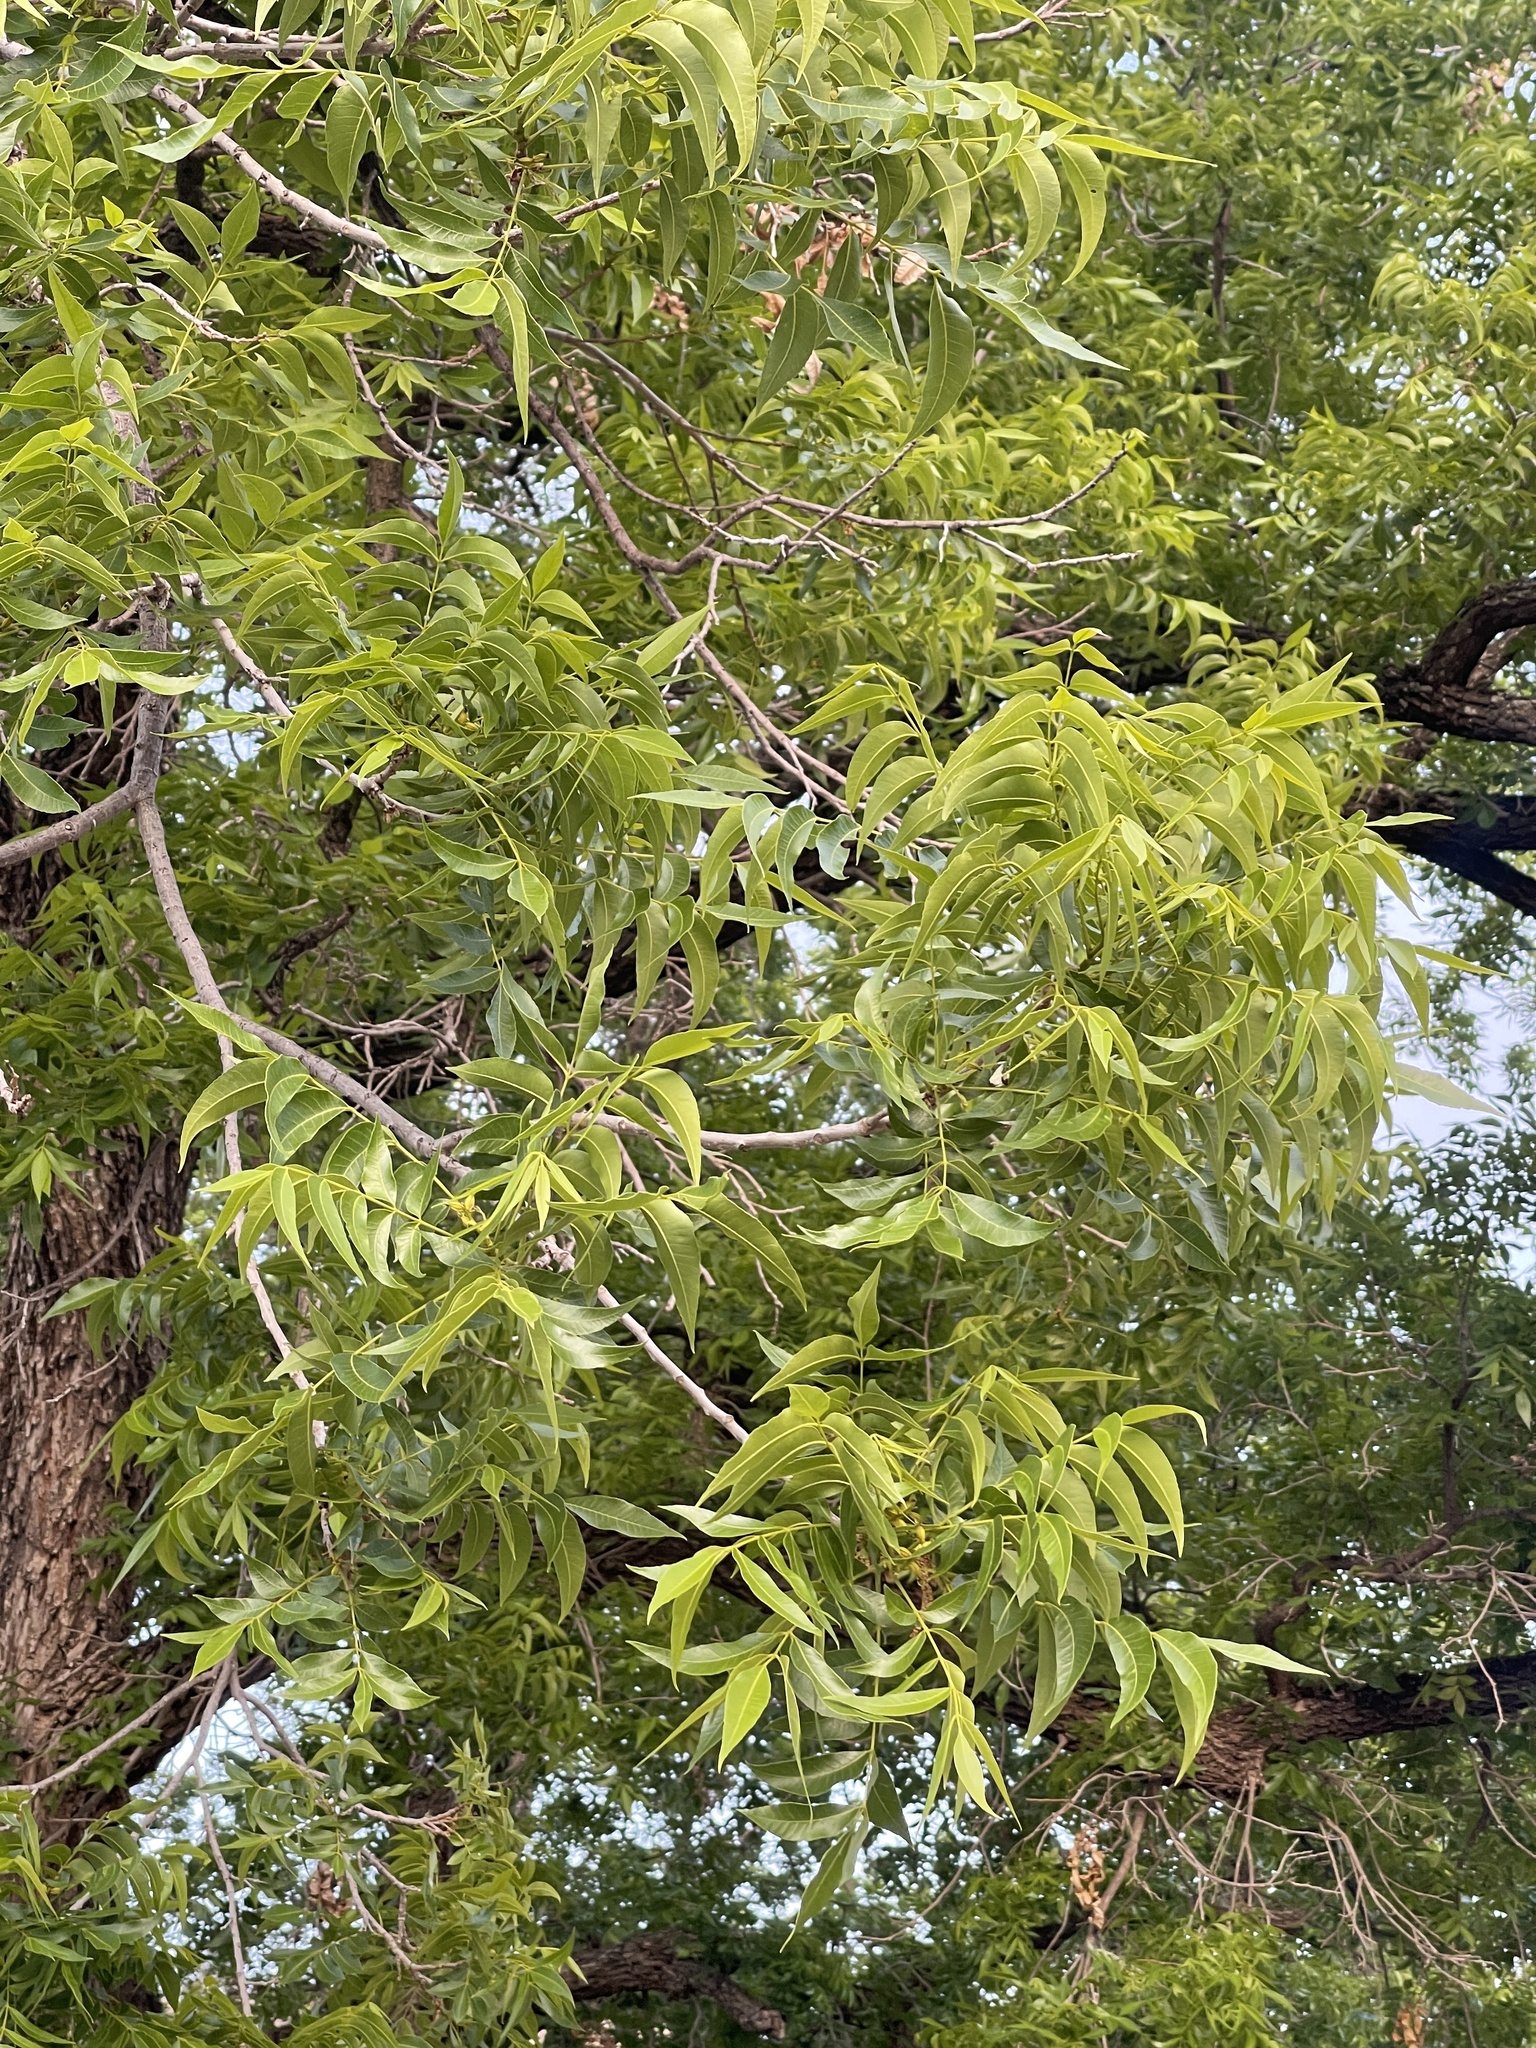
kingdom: Plantae
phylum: Tracheophyta
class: Magnoliopsida
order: Fagales
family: Juglandaceae
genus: Carya
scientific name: Carya illinoinensis
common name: Pecan
